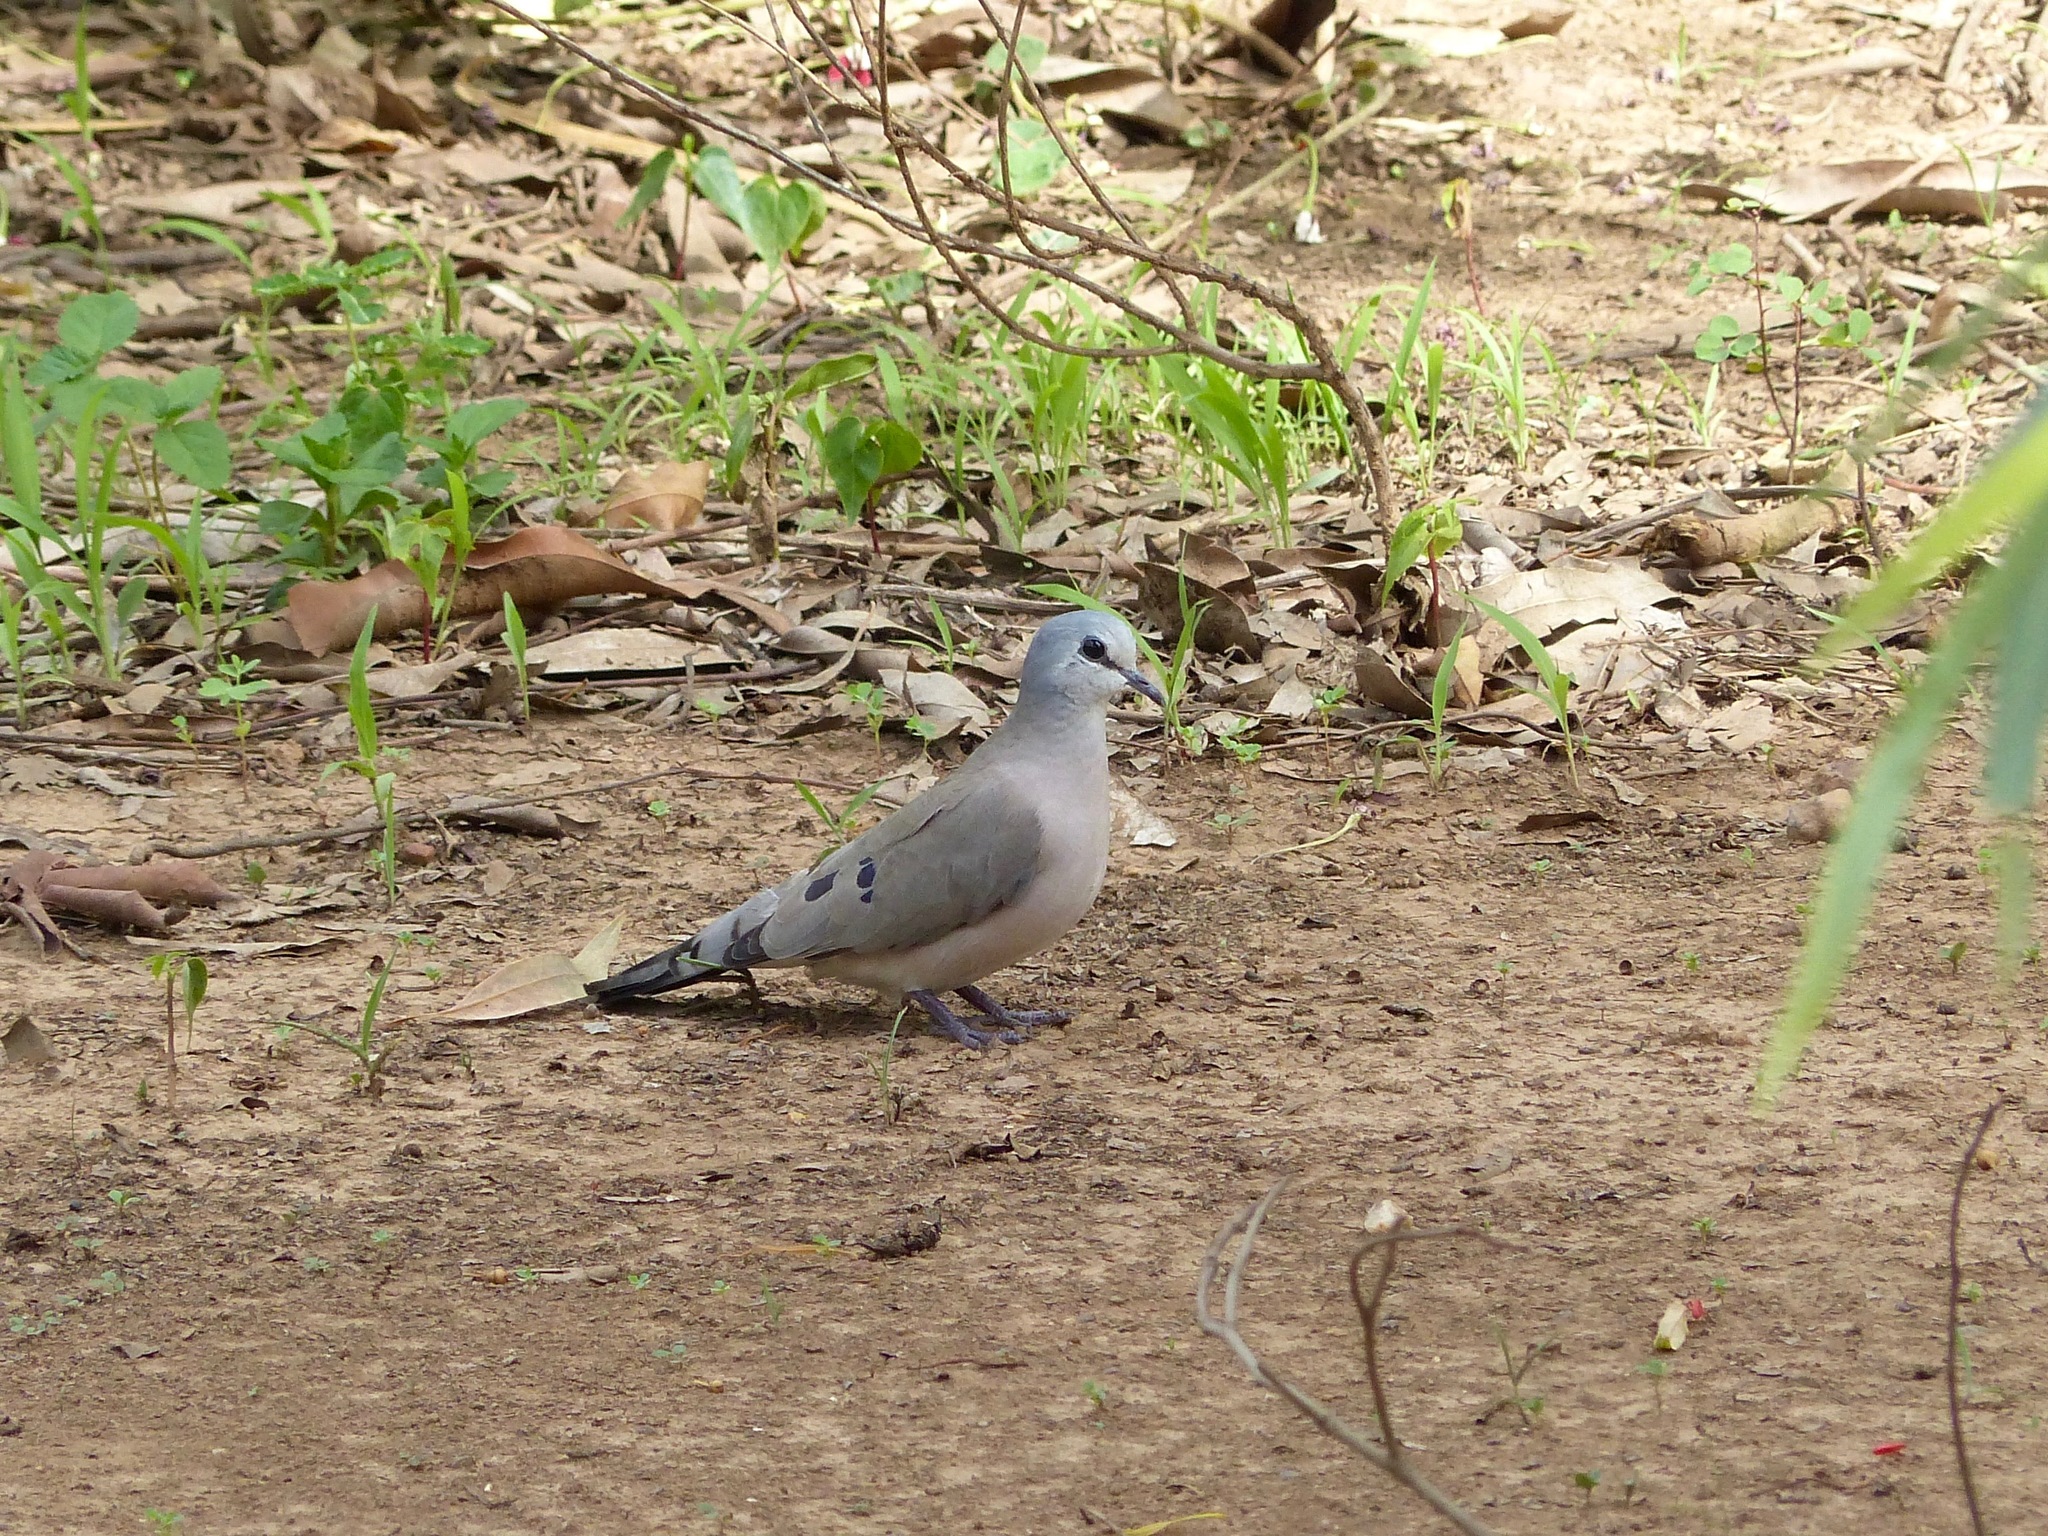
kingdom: Animalia
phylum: Chordata
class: Aves
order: Columbiformes
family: Columbidae
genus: Turtur
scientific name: Turtur abyssinicus
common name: Black-billed wood dove
